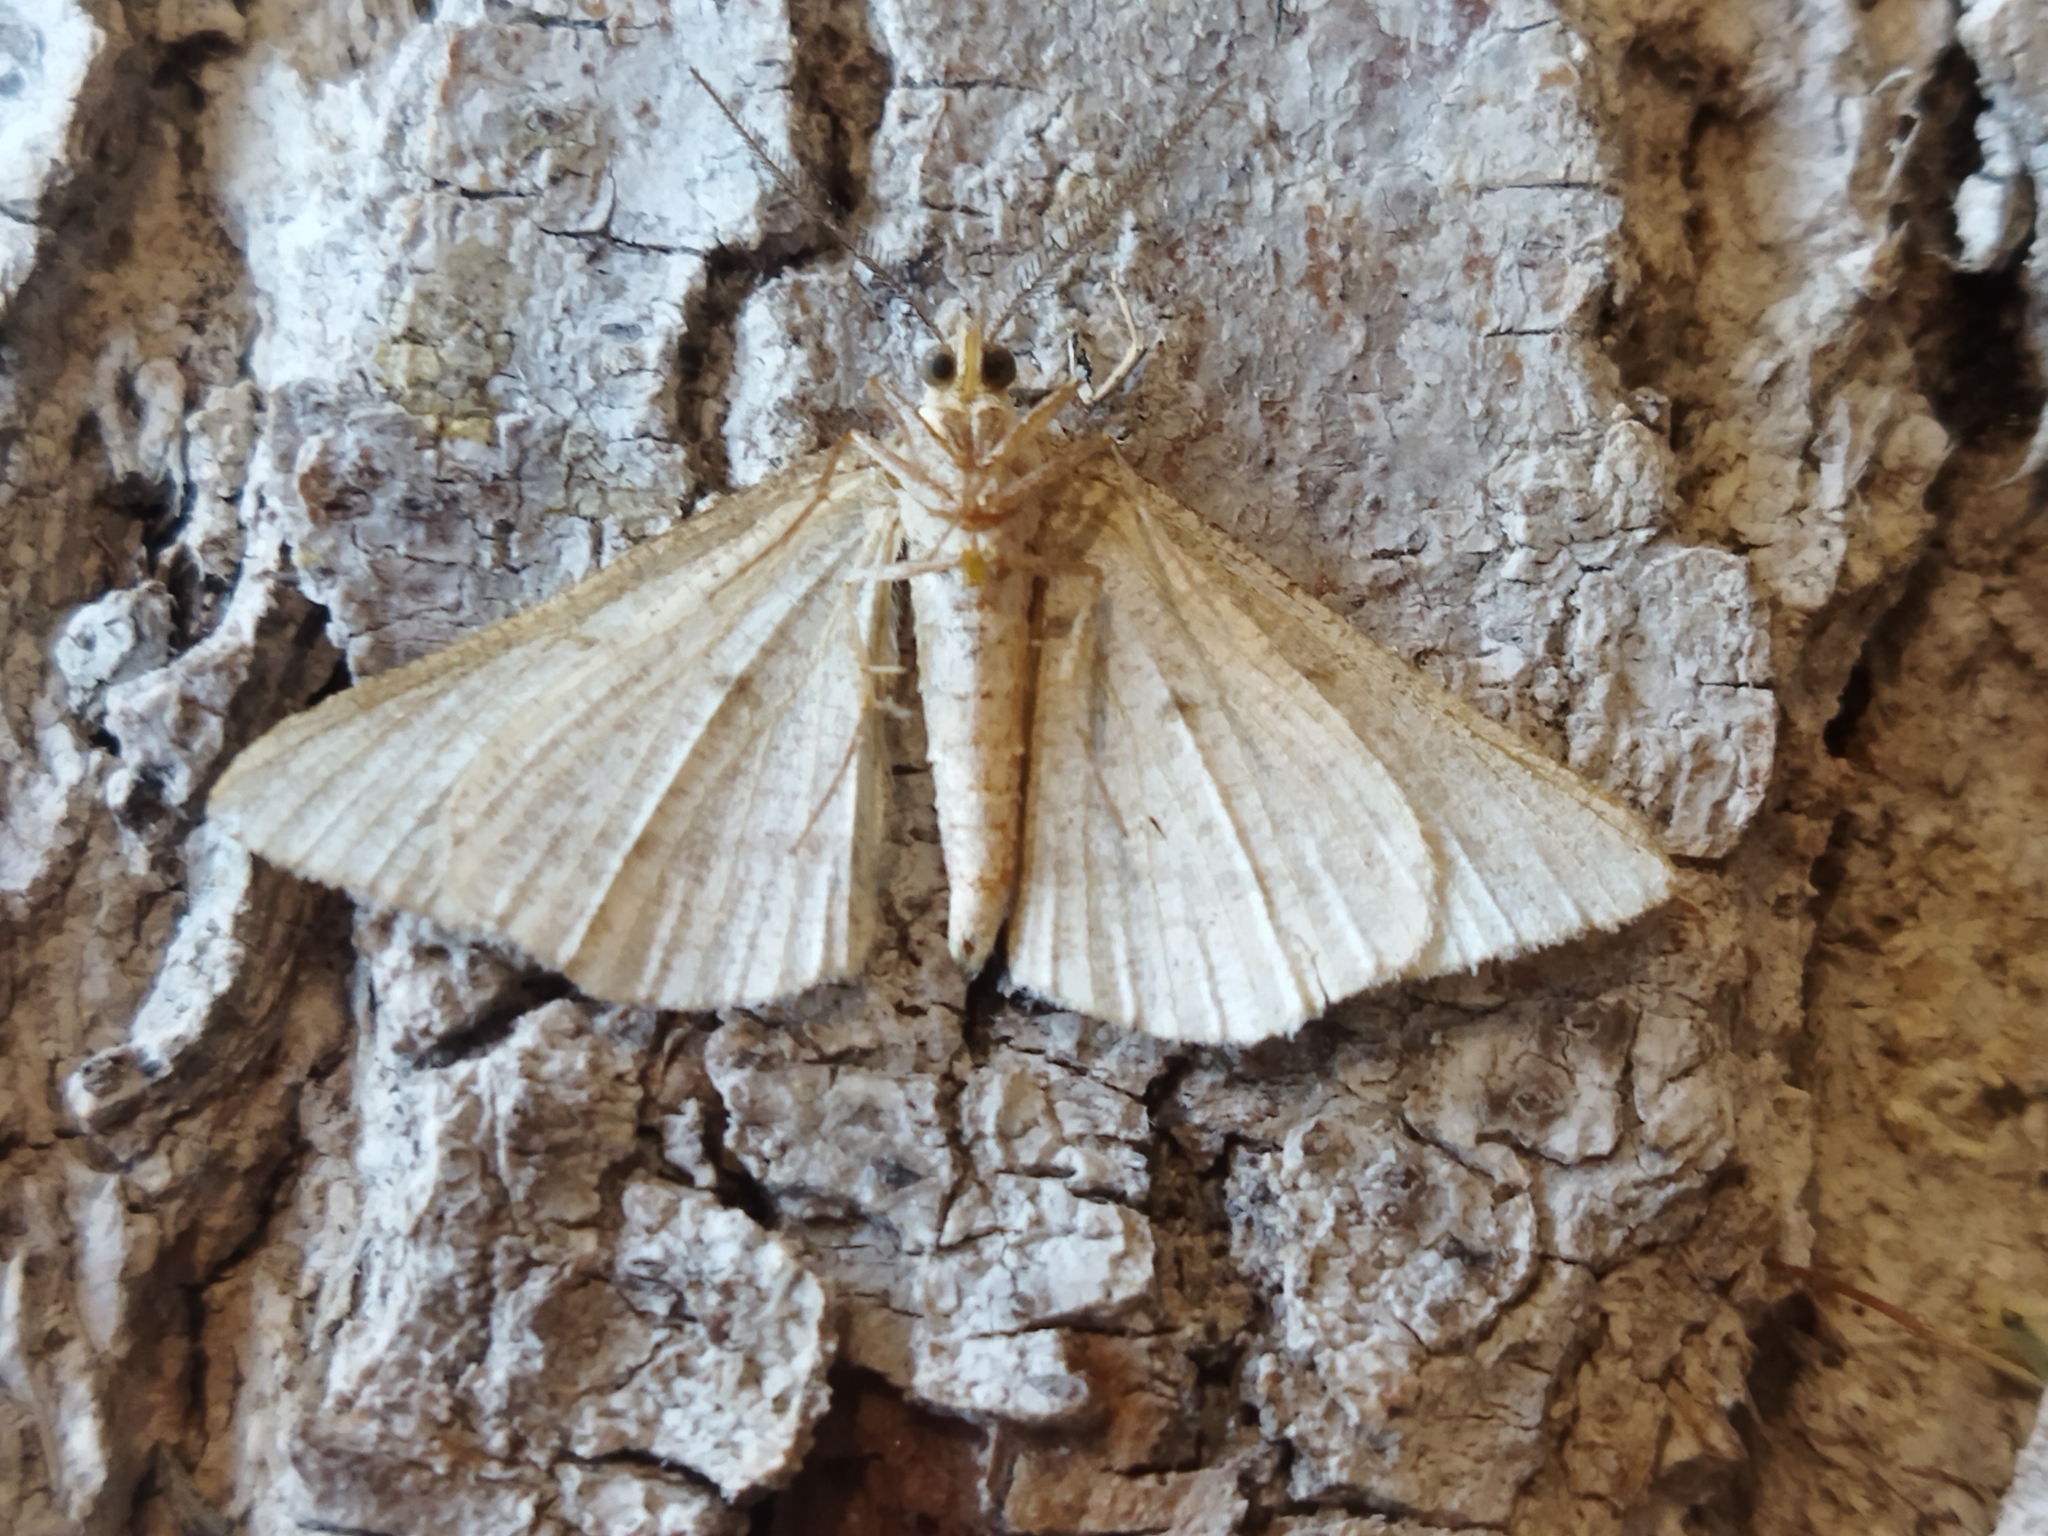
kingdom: Animalia
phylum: Arthropoda
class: Insecta
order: Lepidoptera
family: Geometridae
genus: Tephrina
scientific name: Tephrina arenacearia
